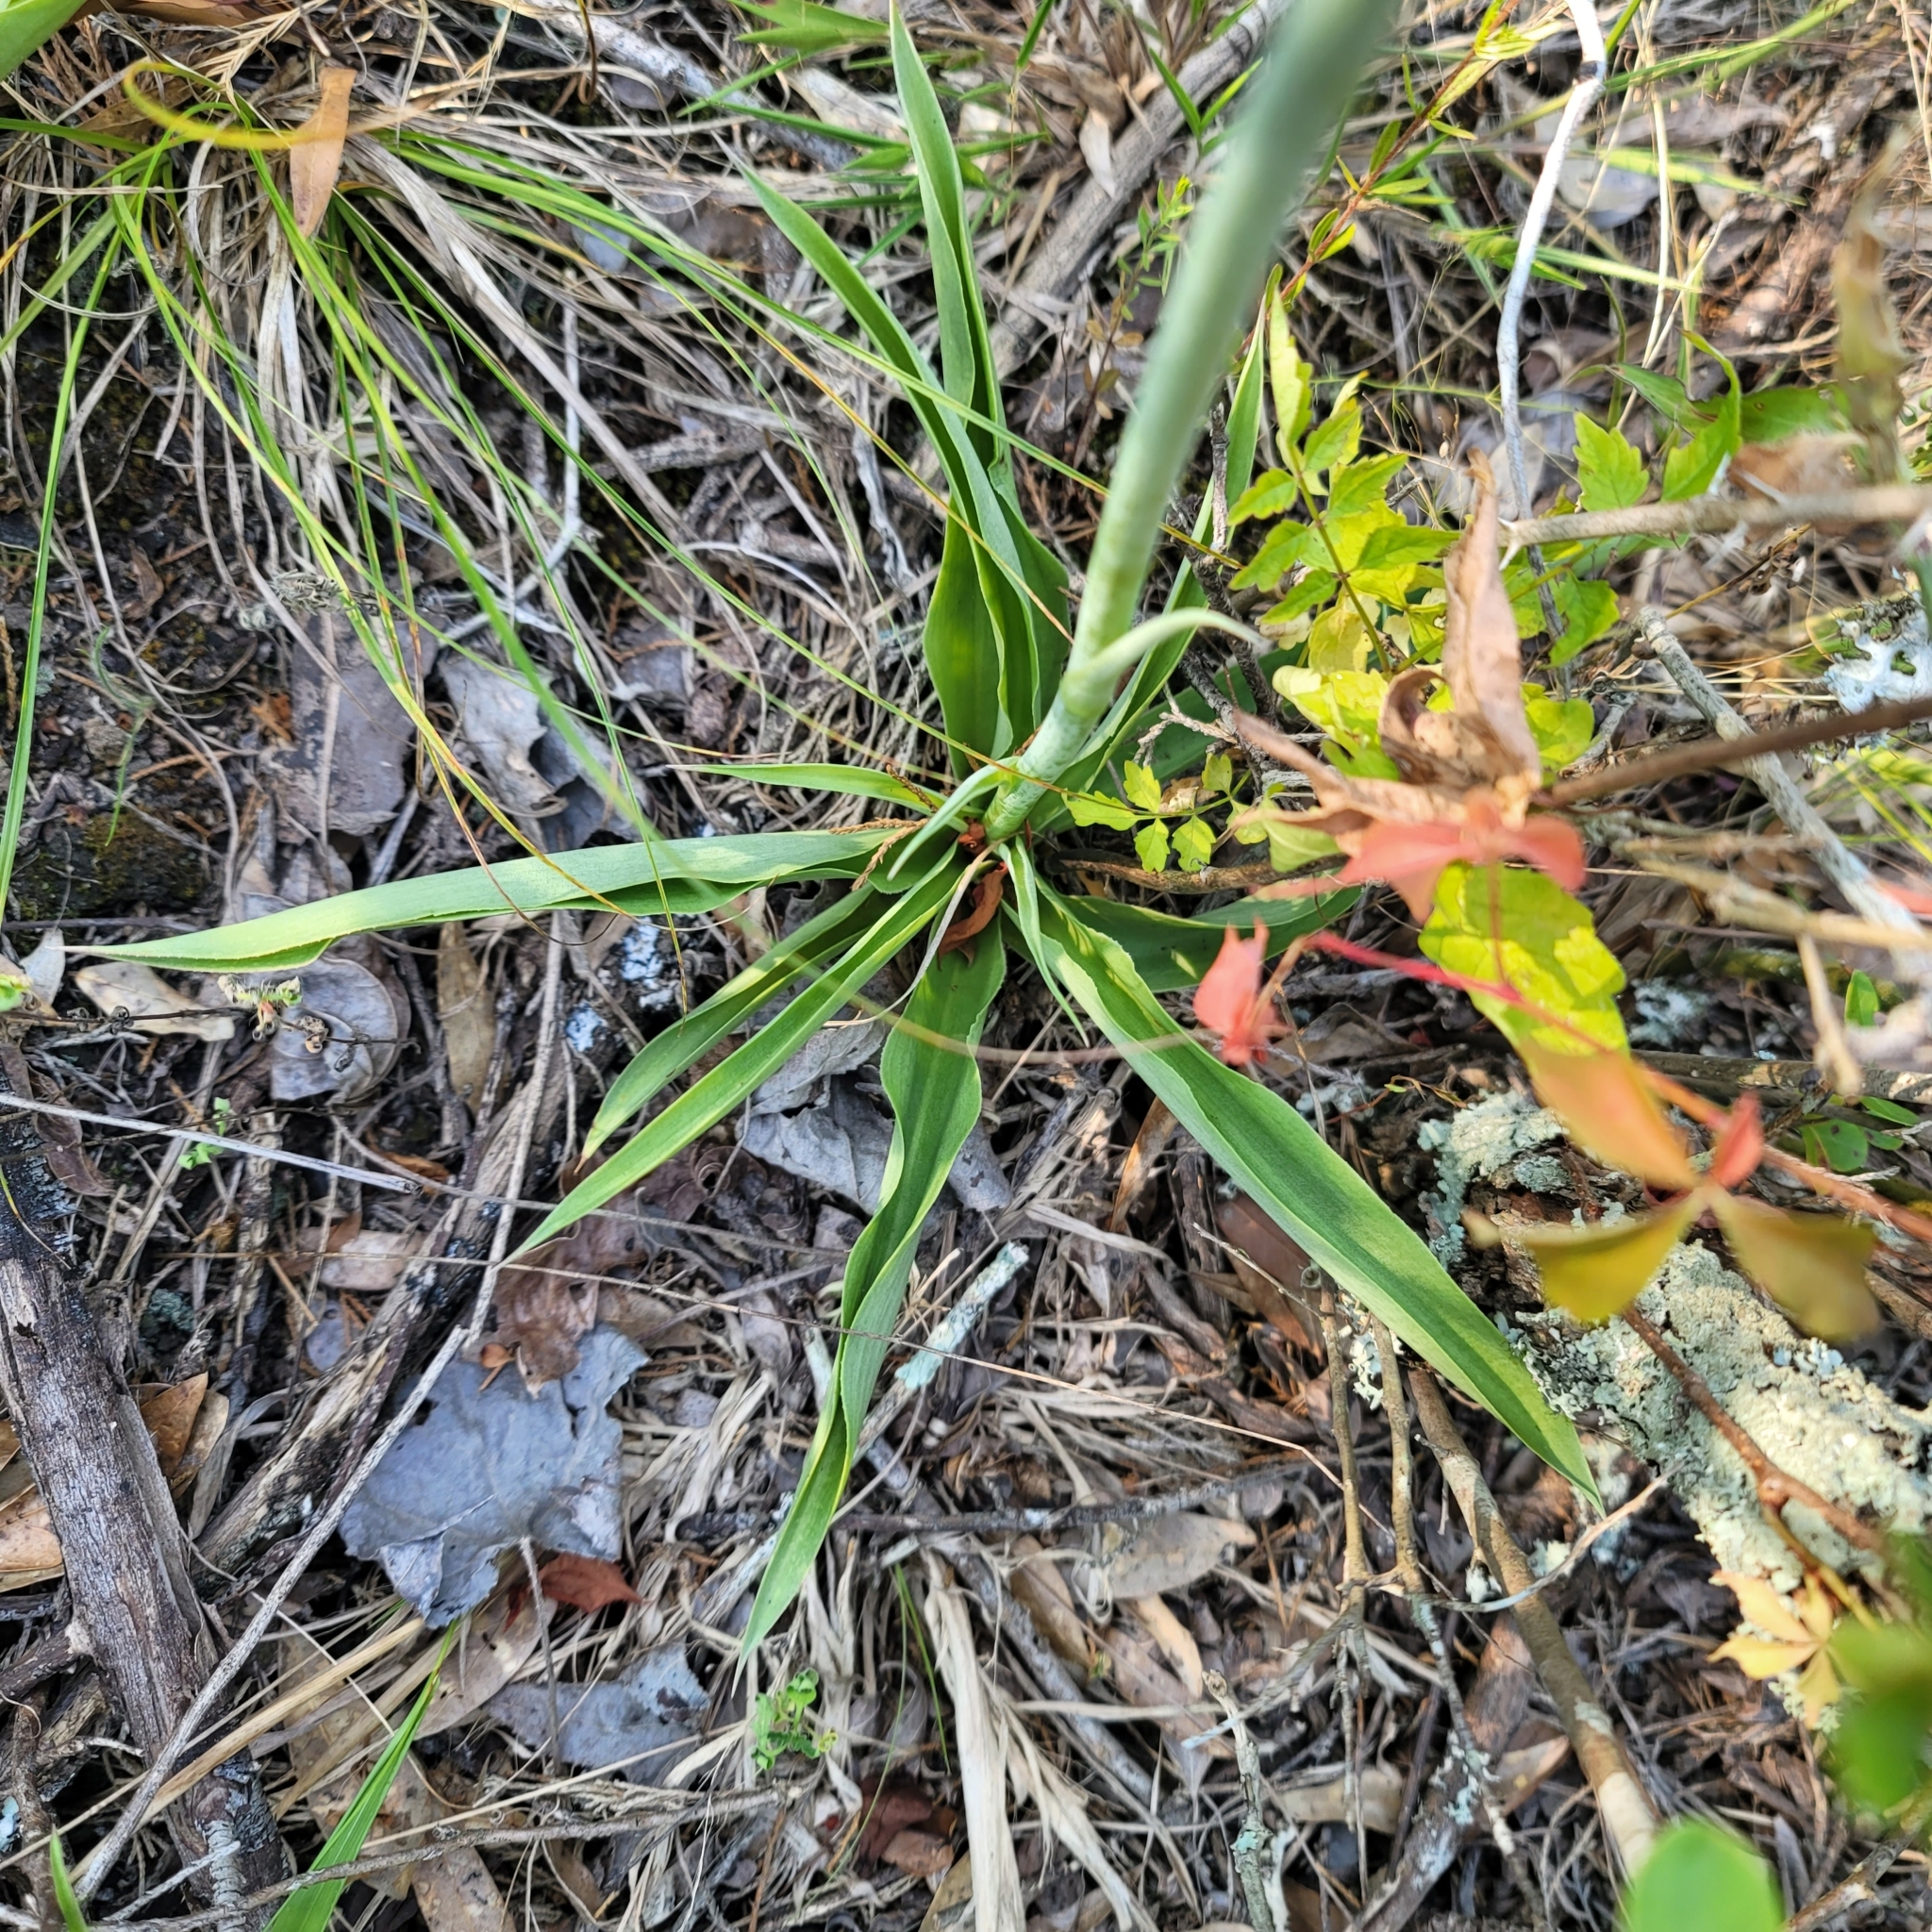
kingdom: Plantae
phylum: Tracheophyta
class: Liliopsida
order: Asparagales
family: Asparagaceae
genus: Agave
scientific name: Agave virginica
